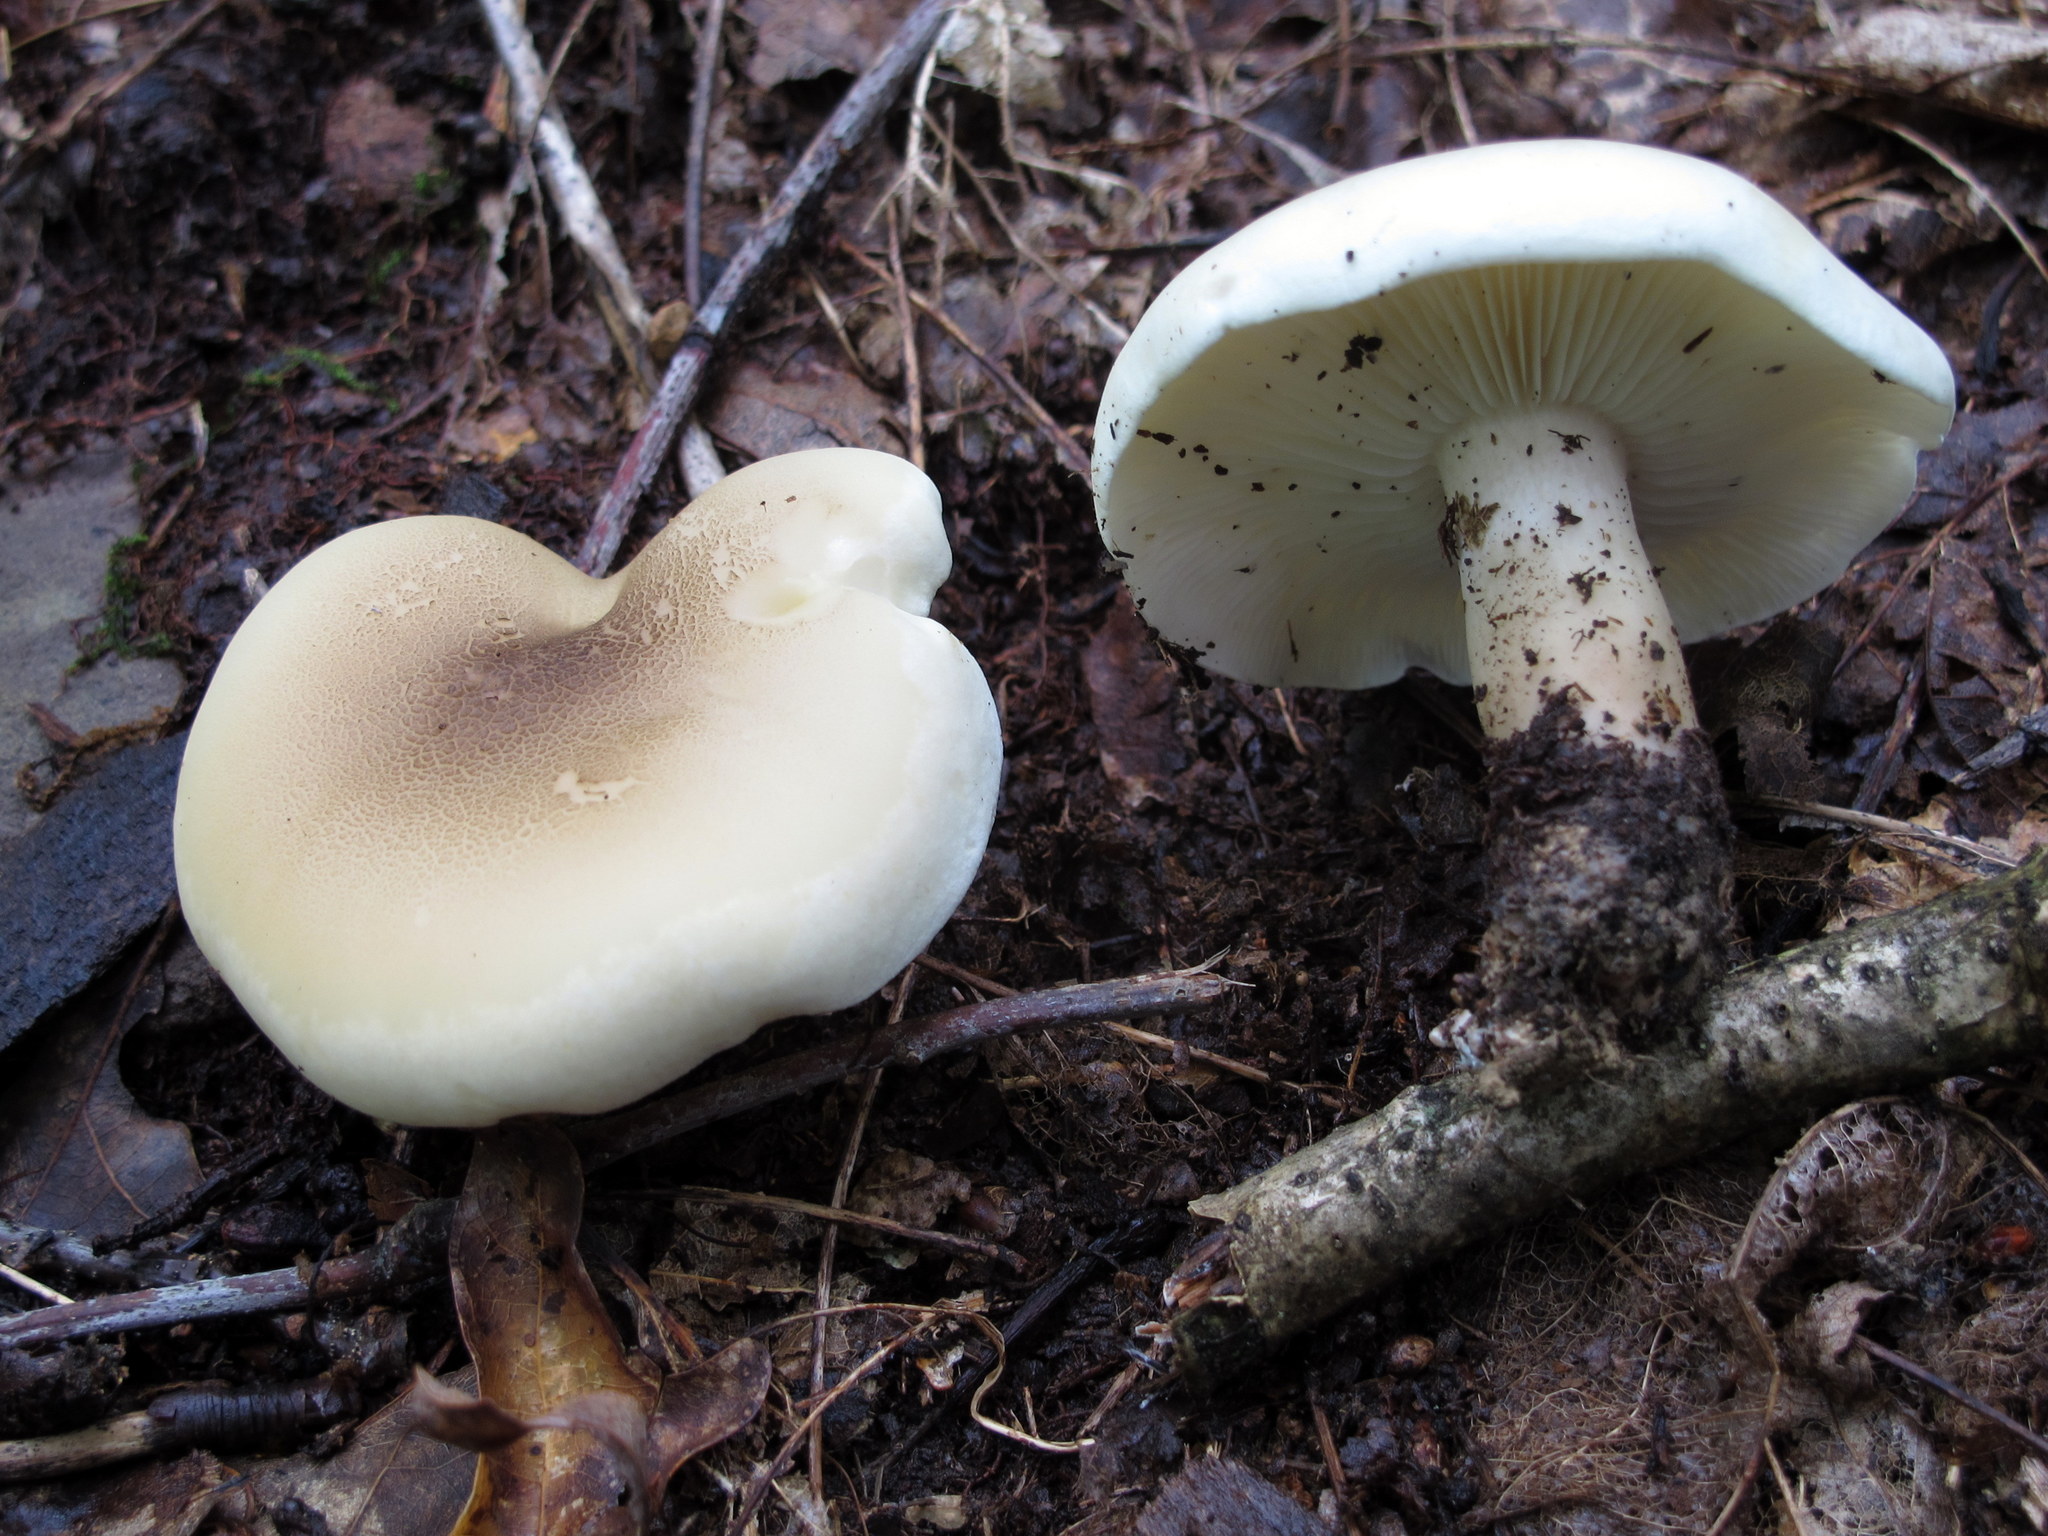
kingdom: Fungi
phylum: Basidiomycota
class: Agaricomycetes
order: Agaricales
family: Tricholomataceae
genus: Tricholoma
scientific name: Tricholoma saponaceum
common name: Soapy trich
